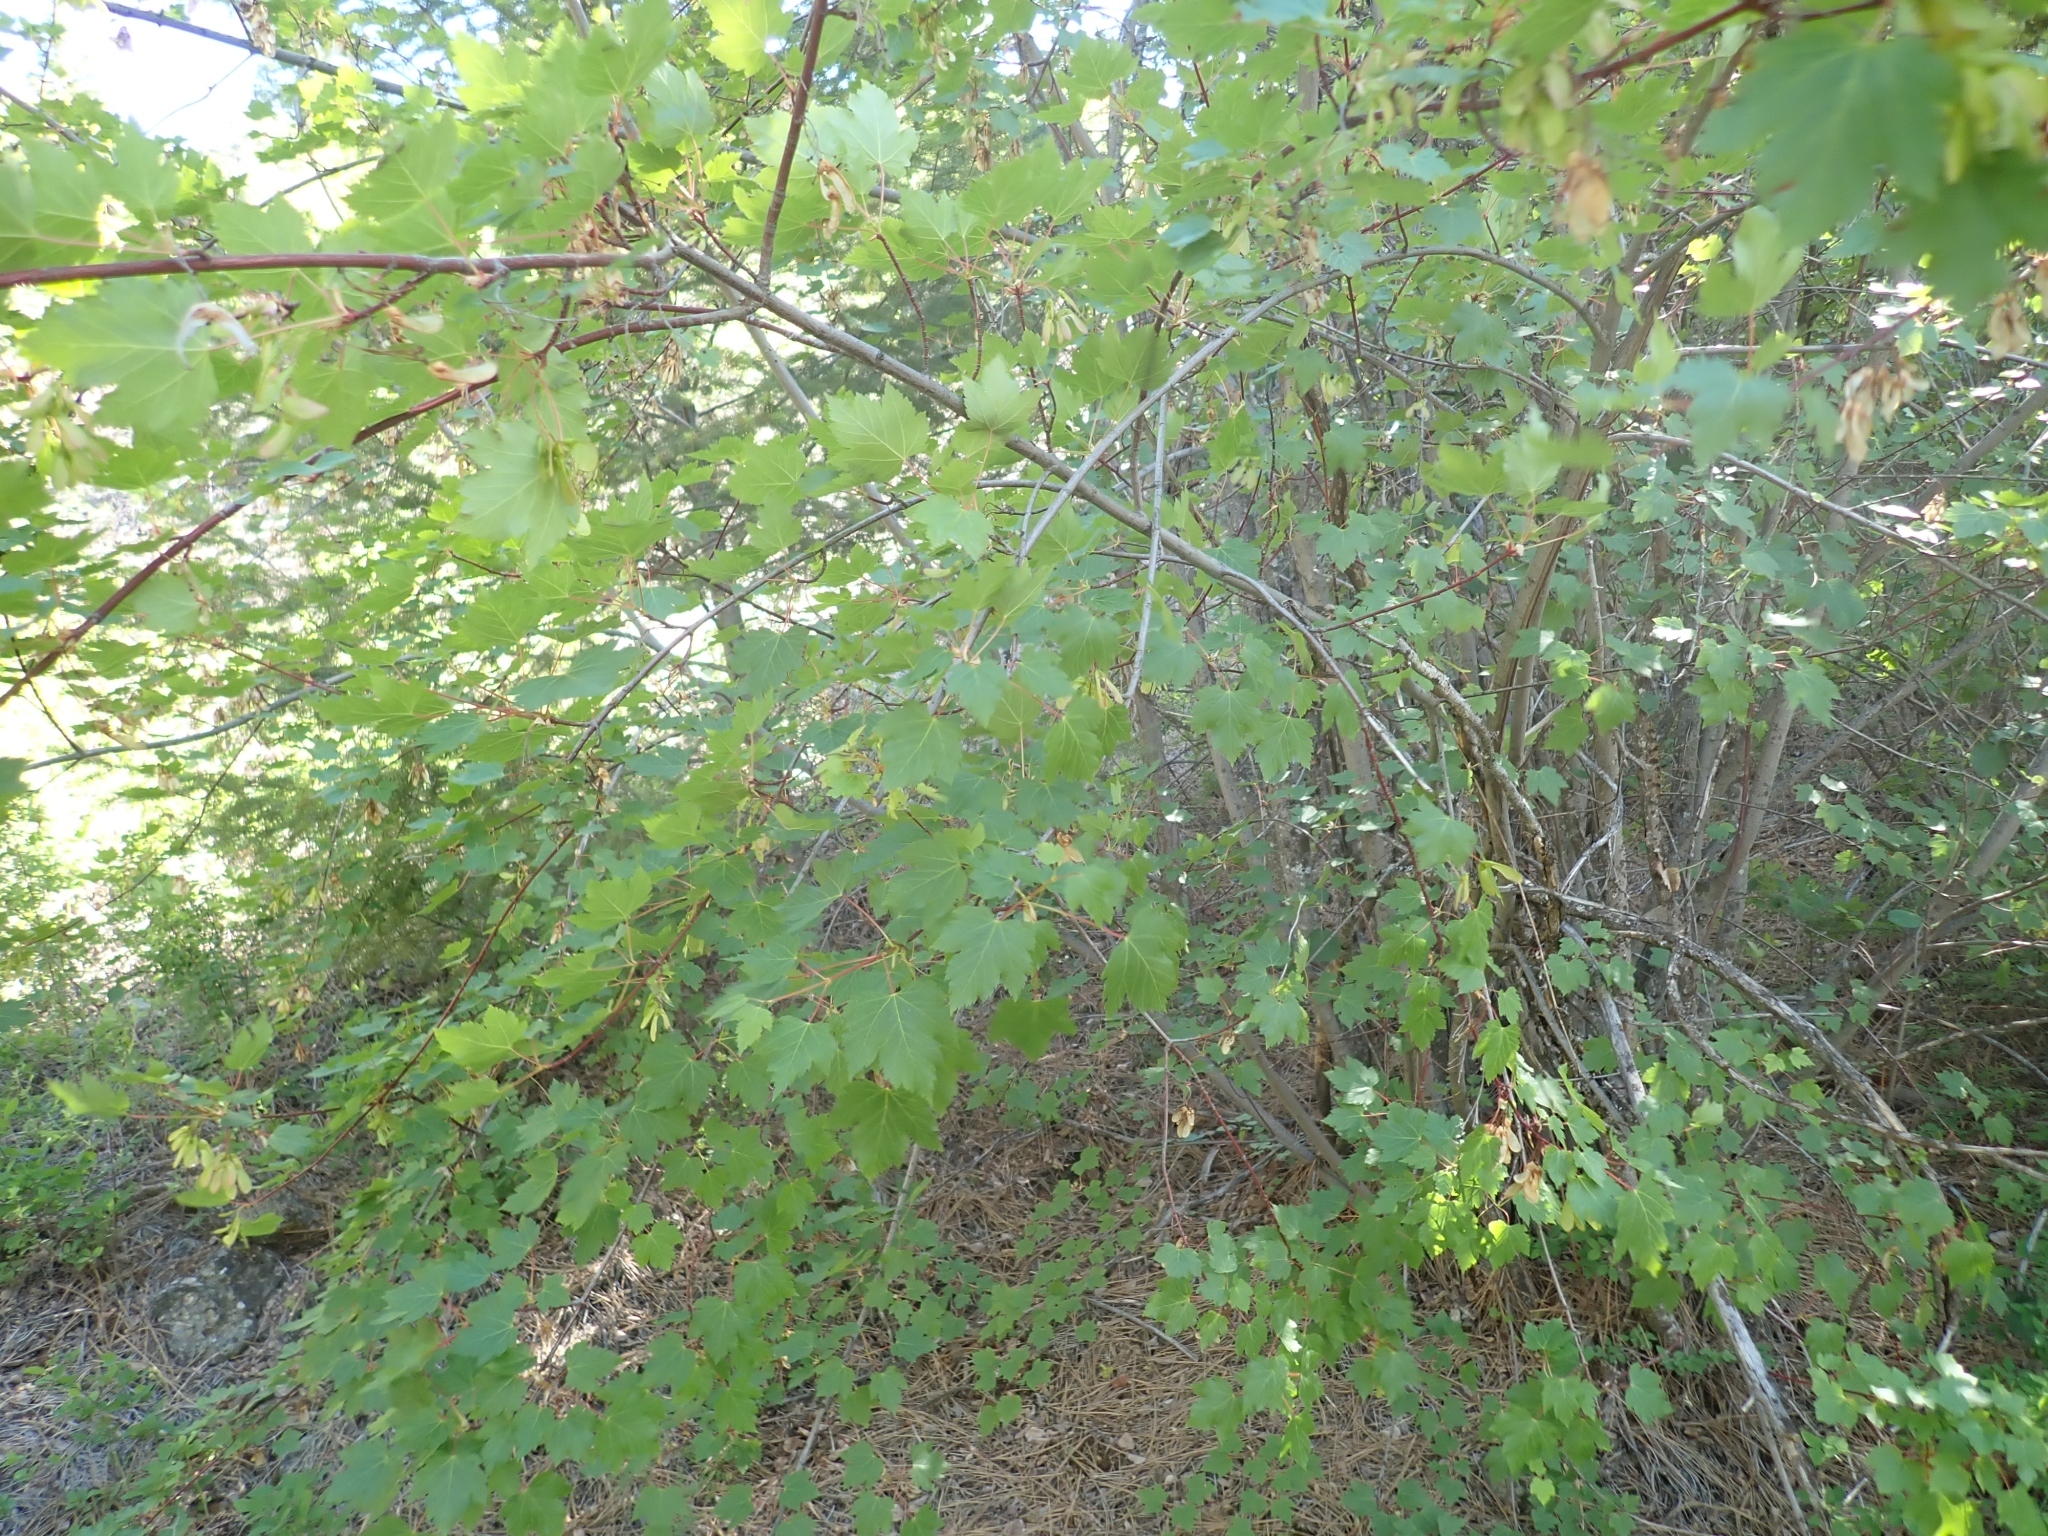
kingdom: Plantae
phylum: Tracheophyta
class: Magnoliopsida
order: Sapindales
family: Sapindaceae
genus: Acer
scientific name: Acer glabrum
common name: Rocky mountain maple
